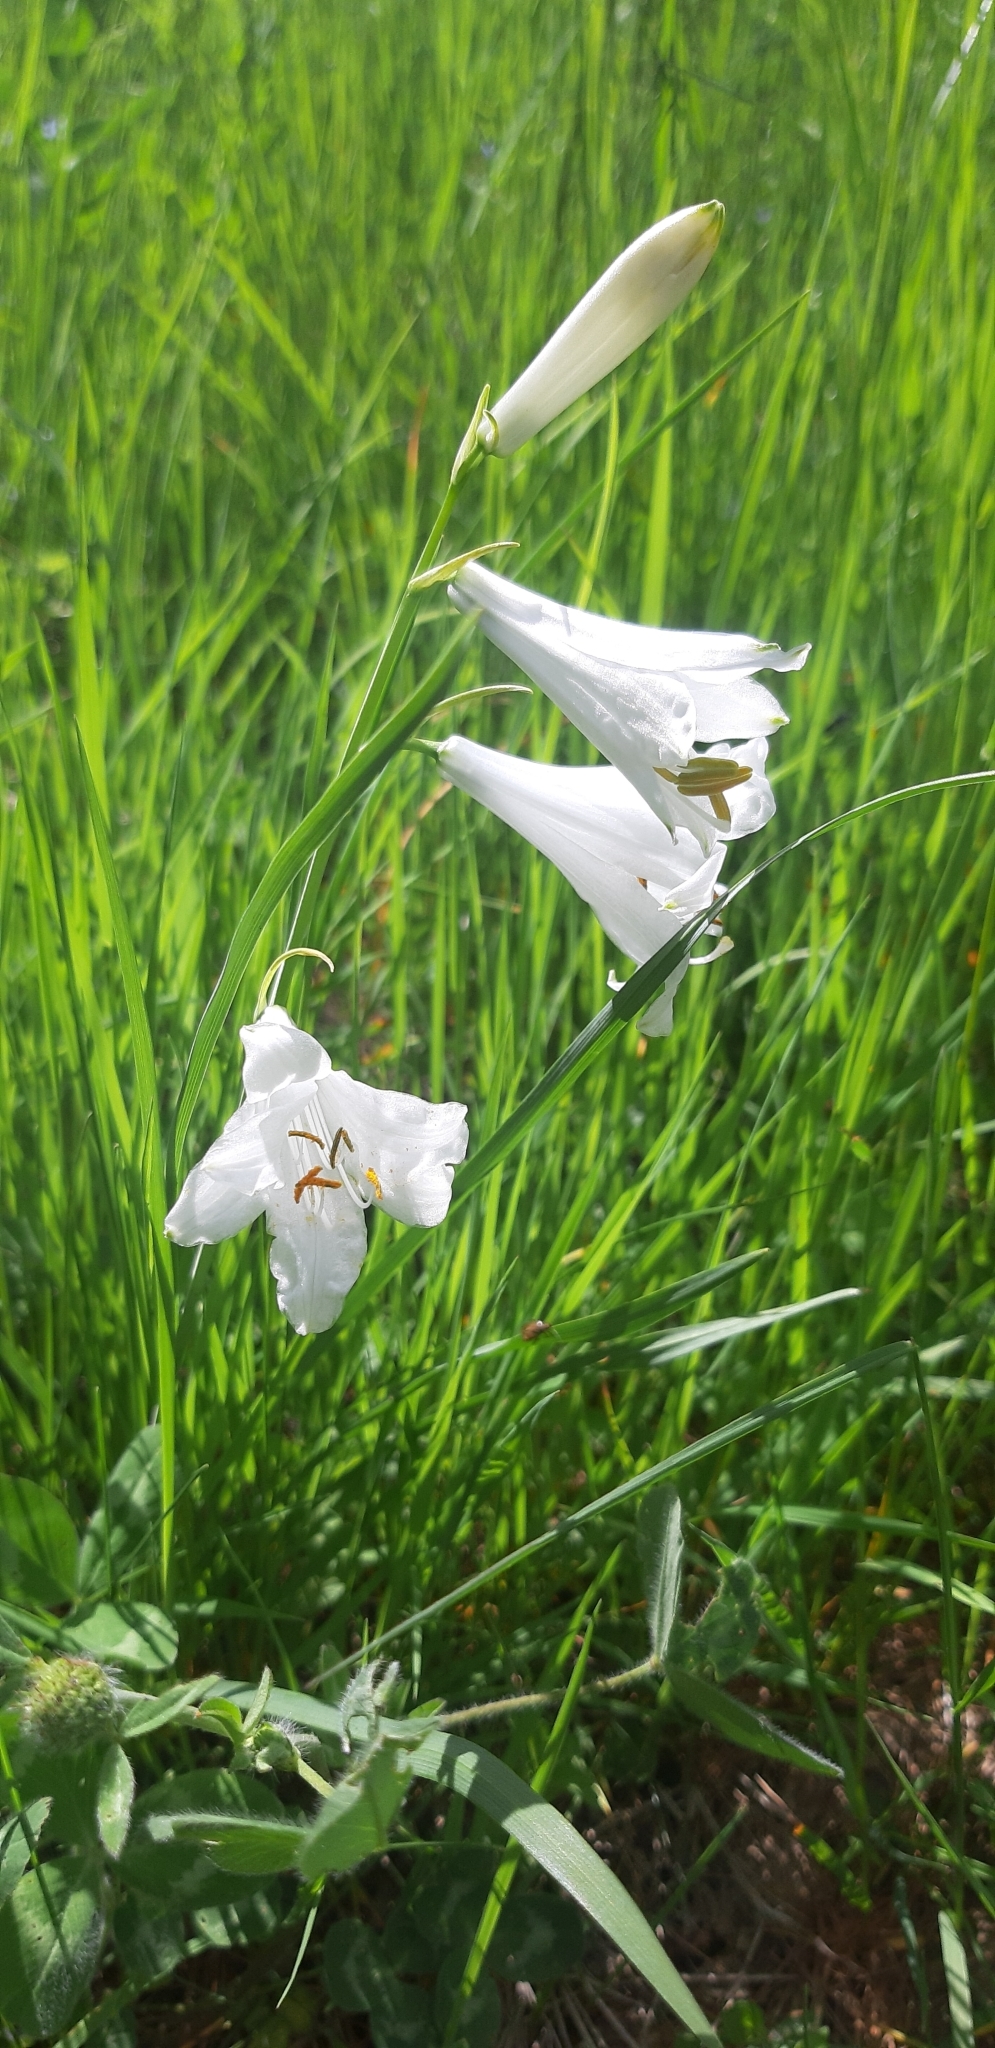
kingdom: Plantae
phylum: Tracheophyta
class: Liliopsida
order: Asparagales
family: Asparagaceae
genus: Paradisea
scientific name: Paradisea liliastrum
